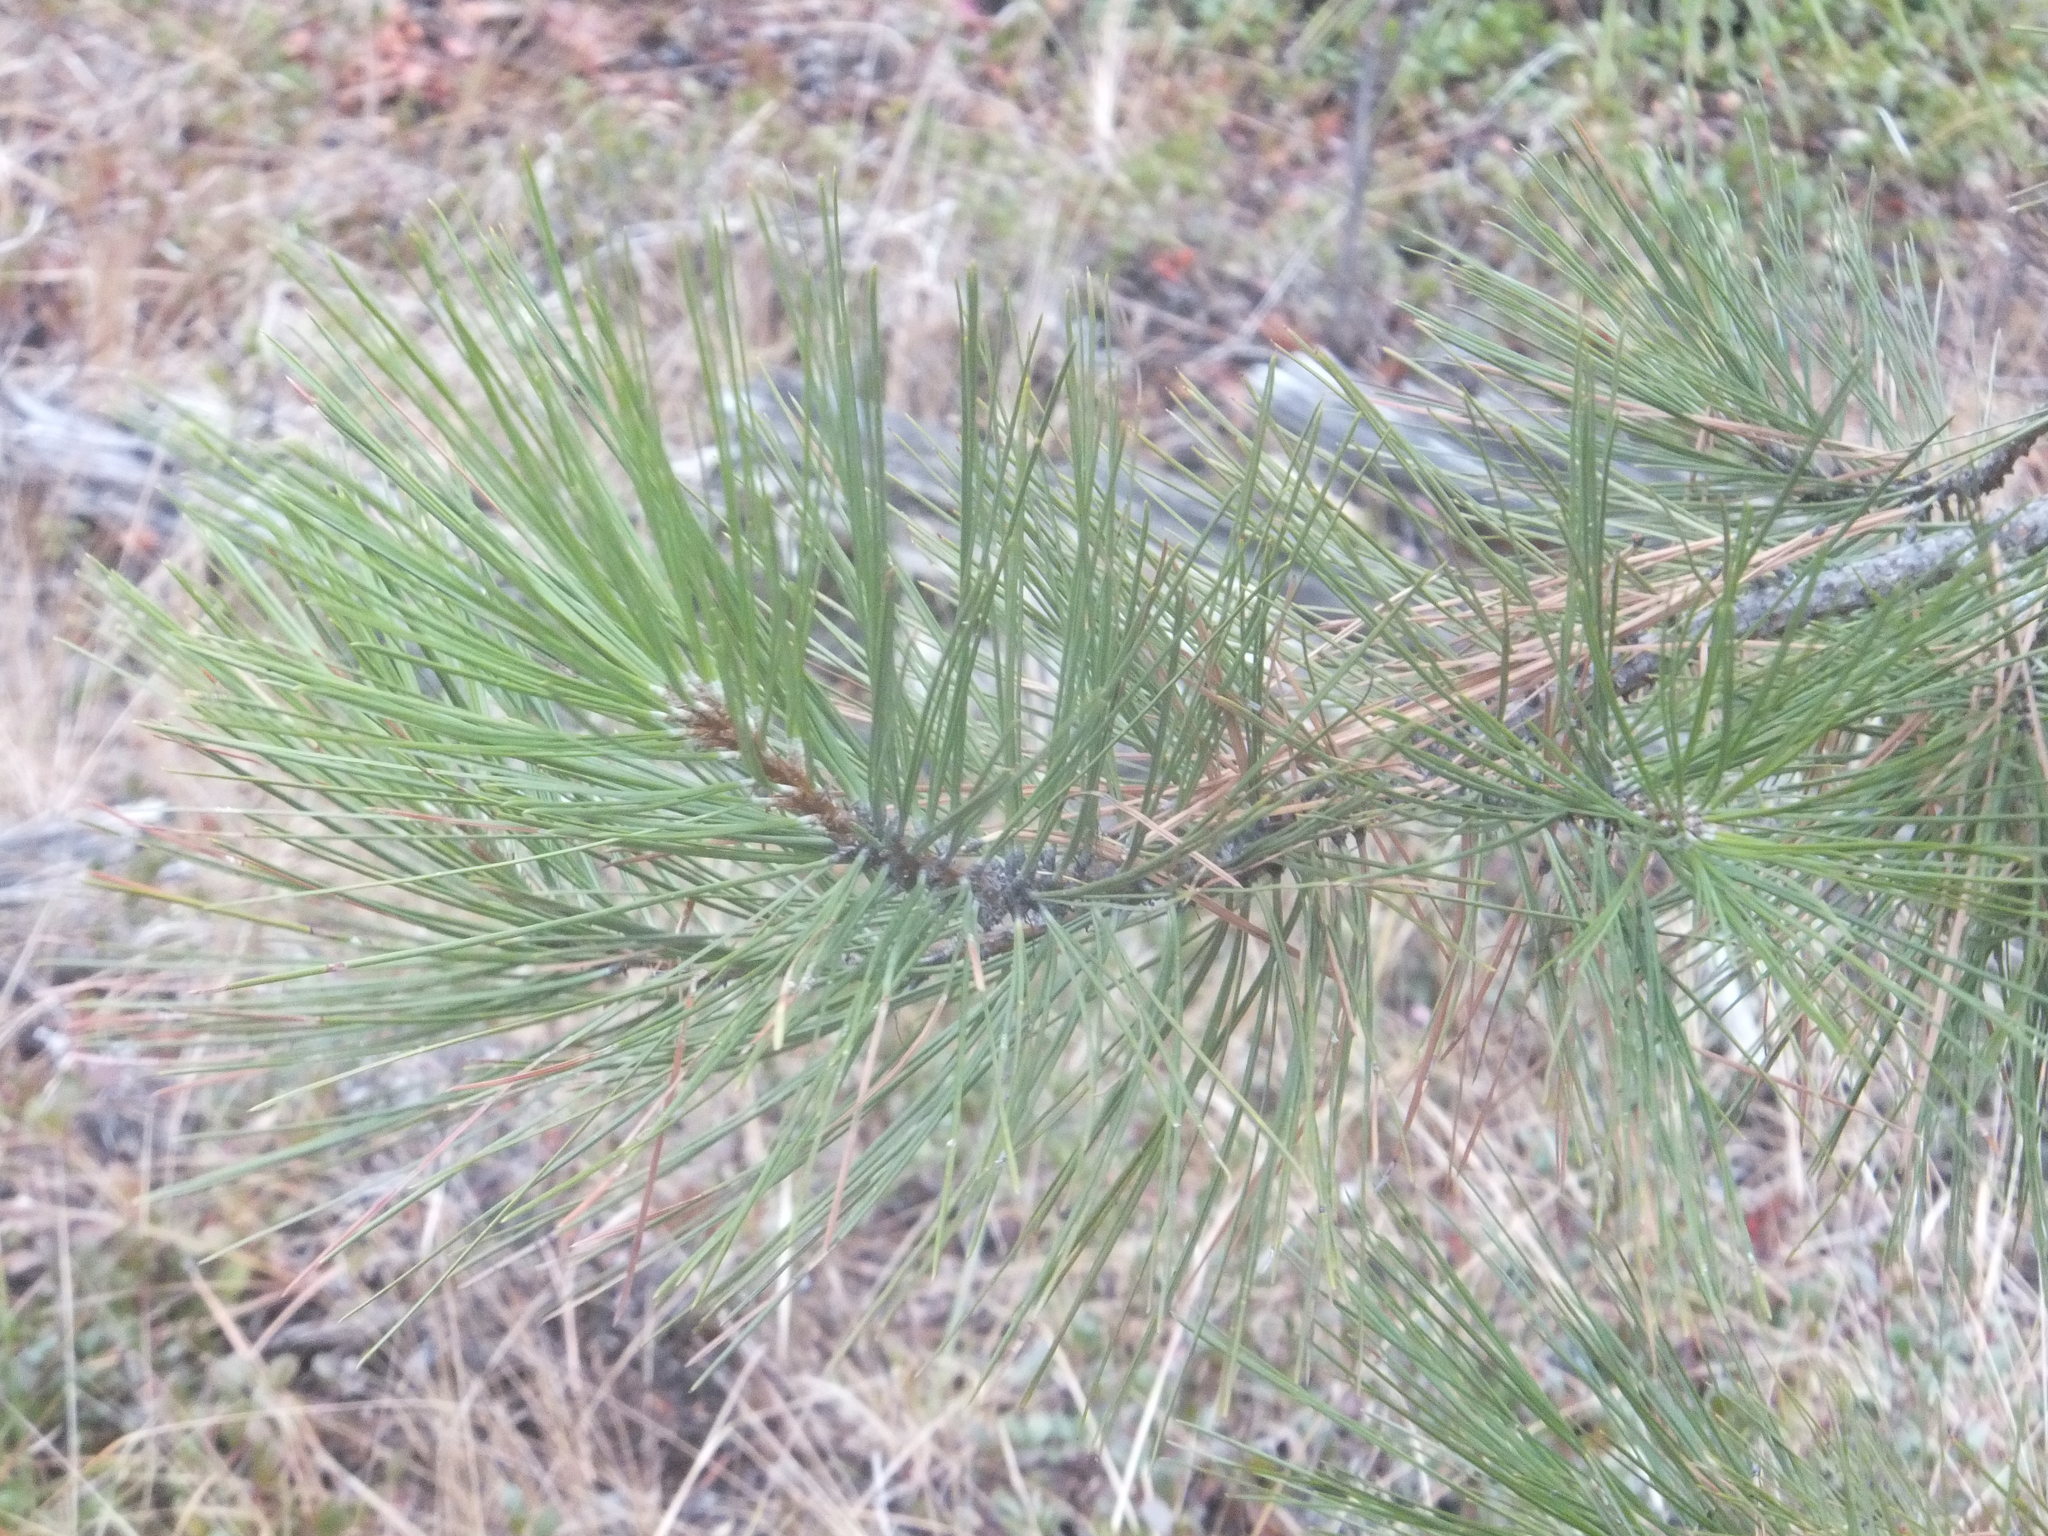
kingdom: Plantae
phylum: Tracheophyta
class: Pinopsida
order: Pinales
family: Pinaceae
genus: Pinus
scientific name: Pinus ponderosa
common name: Western yellow-pine
